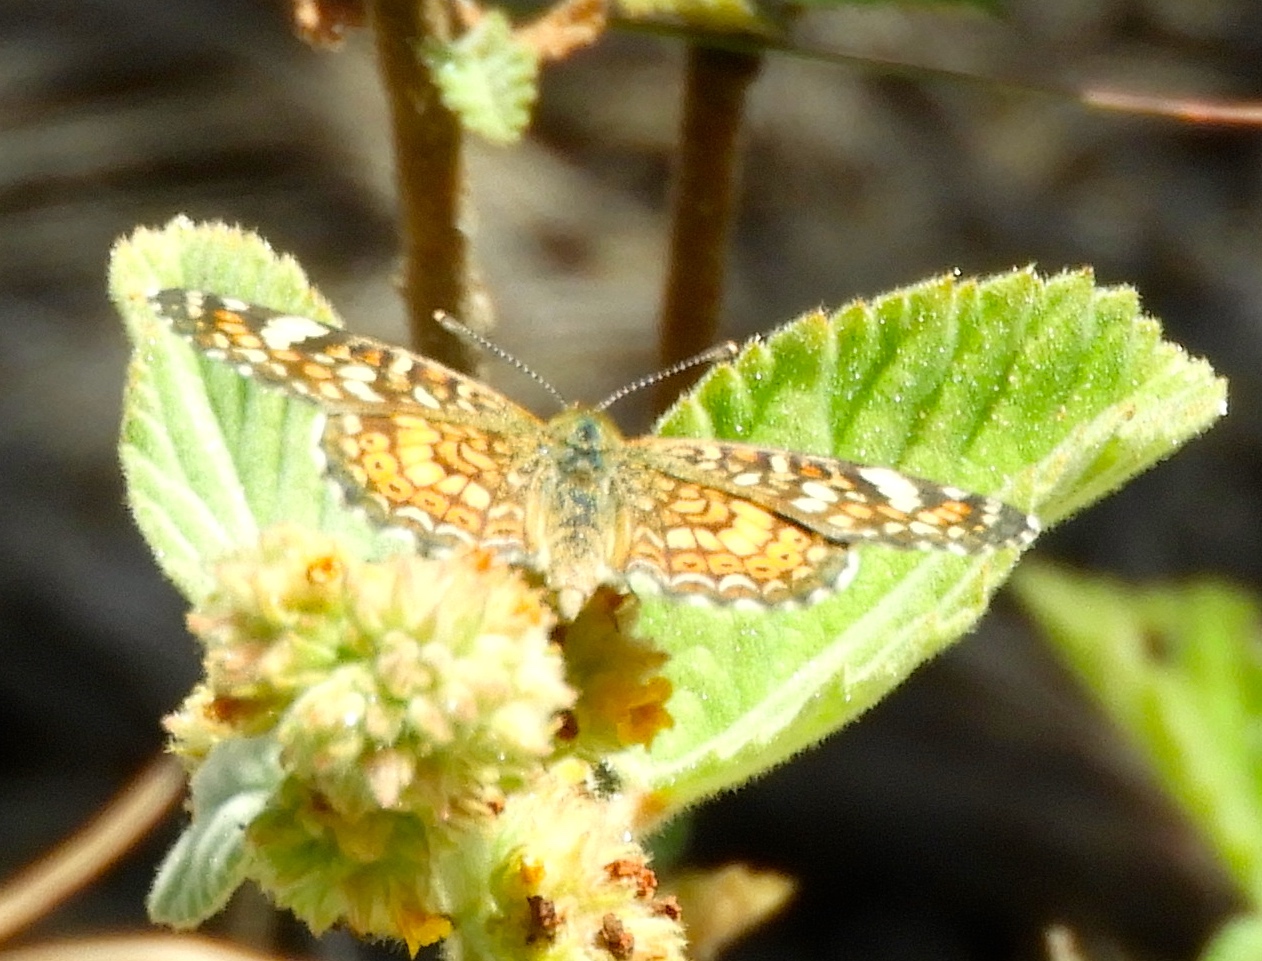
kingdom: Animalia
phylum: Arthropoda
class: Insecta
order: Lepidoptera
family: Nymphalidae
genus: Phyciodes
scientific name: Phyciodes picta
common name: Painted crescent
